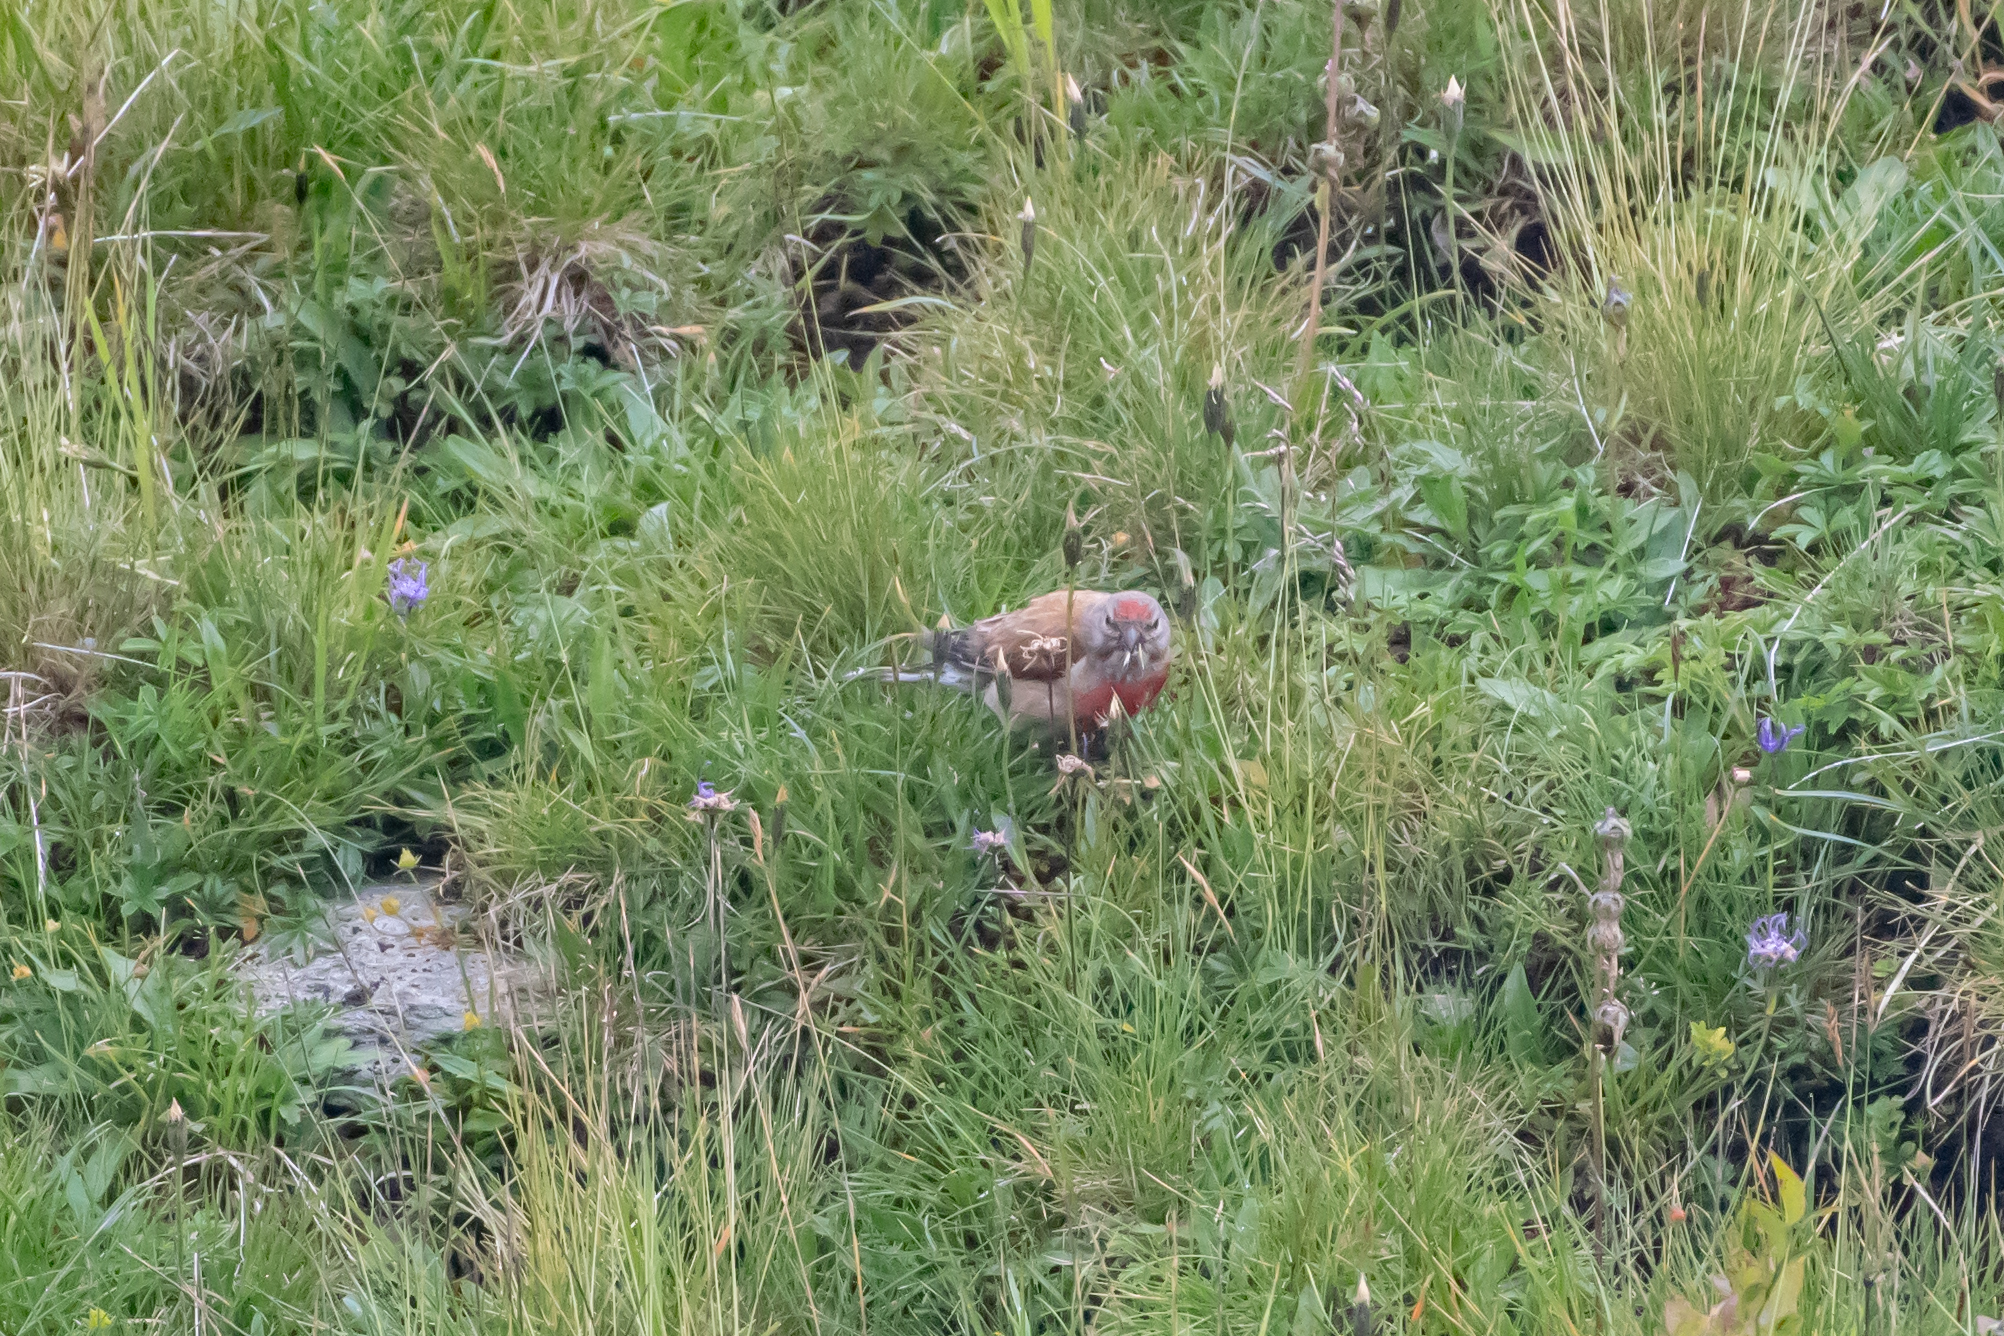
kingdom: Animalia
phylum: Chordata
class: Aves
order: Passeriformes
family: Fringillidae
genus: Linaria
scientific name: Linaria cannabina
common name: Common linnet
